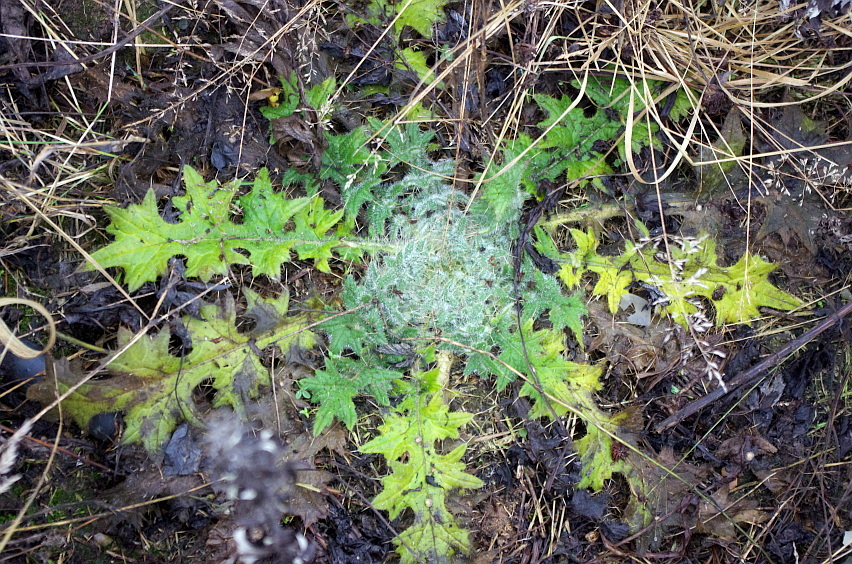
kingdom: Plantae
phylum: Tracheophyta
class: Magnoliopsida
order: Asterales
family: Asteraceae
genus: Cirsium
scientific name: Cirsium vulgare
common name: Bull thistle
